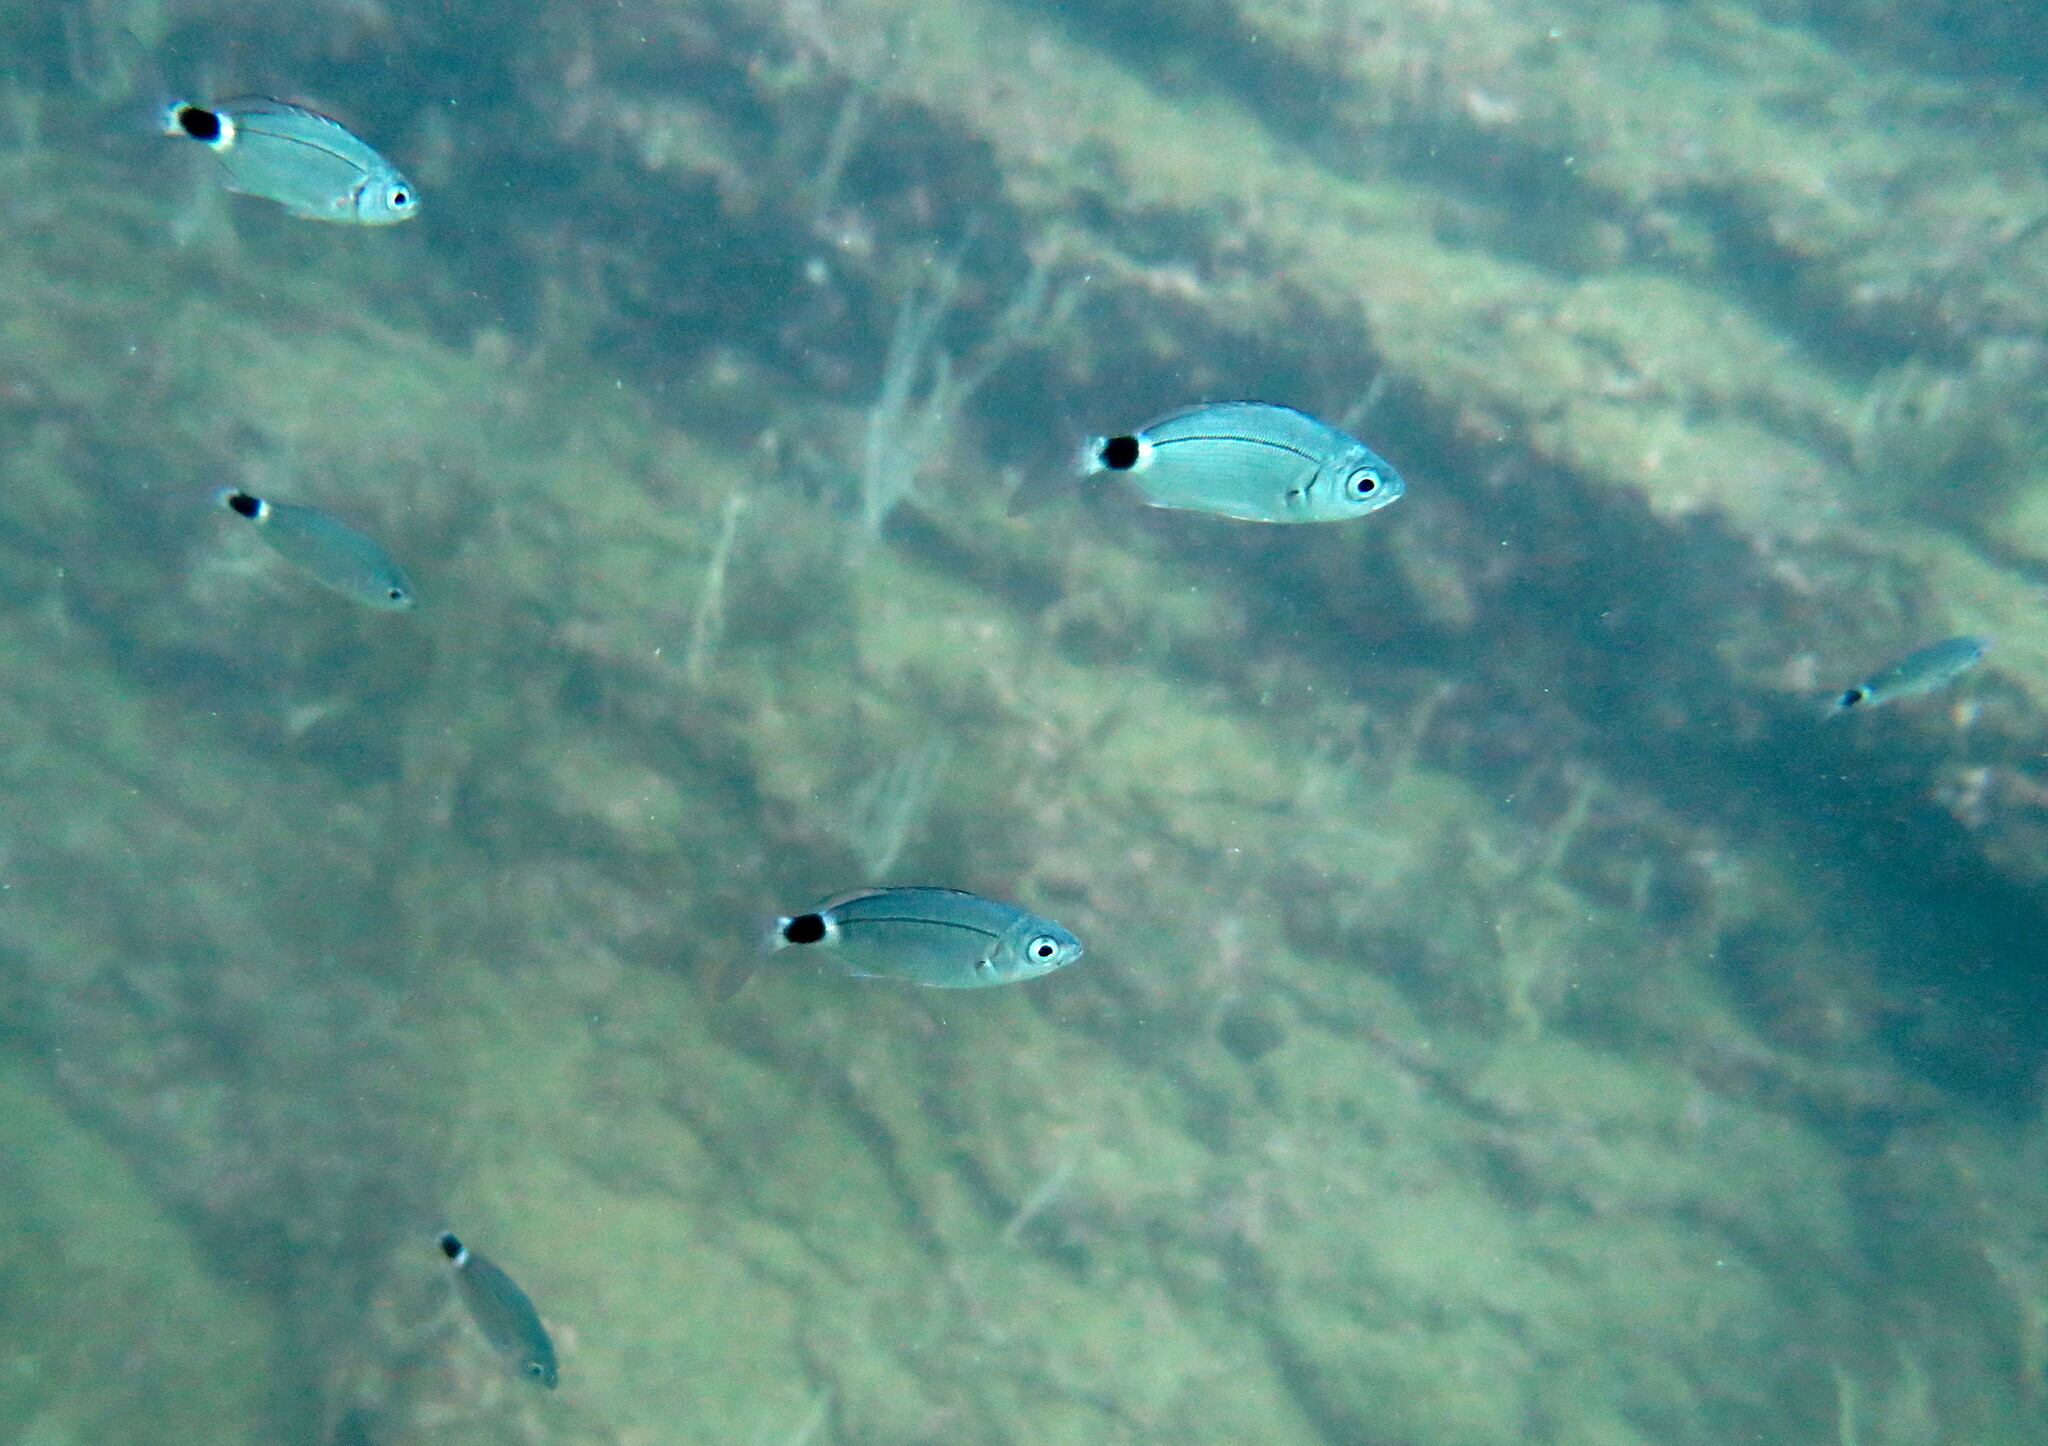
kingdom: Animalia
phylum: Chordata
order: Perciformes
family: Sparidae
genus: Oblada
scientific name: Oblada melanura
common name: Saddled seabream
